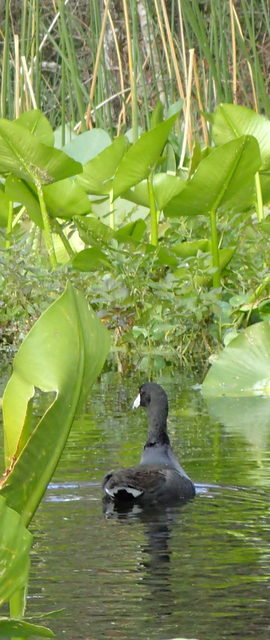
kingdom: Animalia
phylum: Chordata
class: Aves
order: Gruiformes
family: Rallidae
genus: Fulica
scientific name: Fulica americana
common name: American coot
